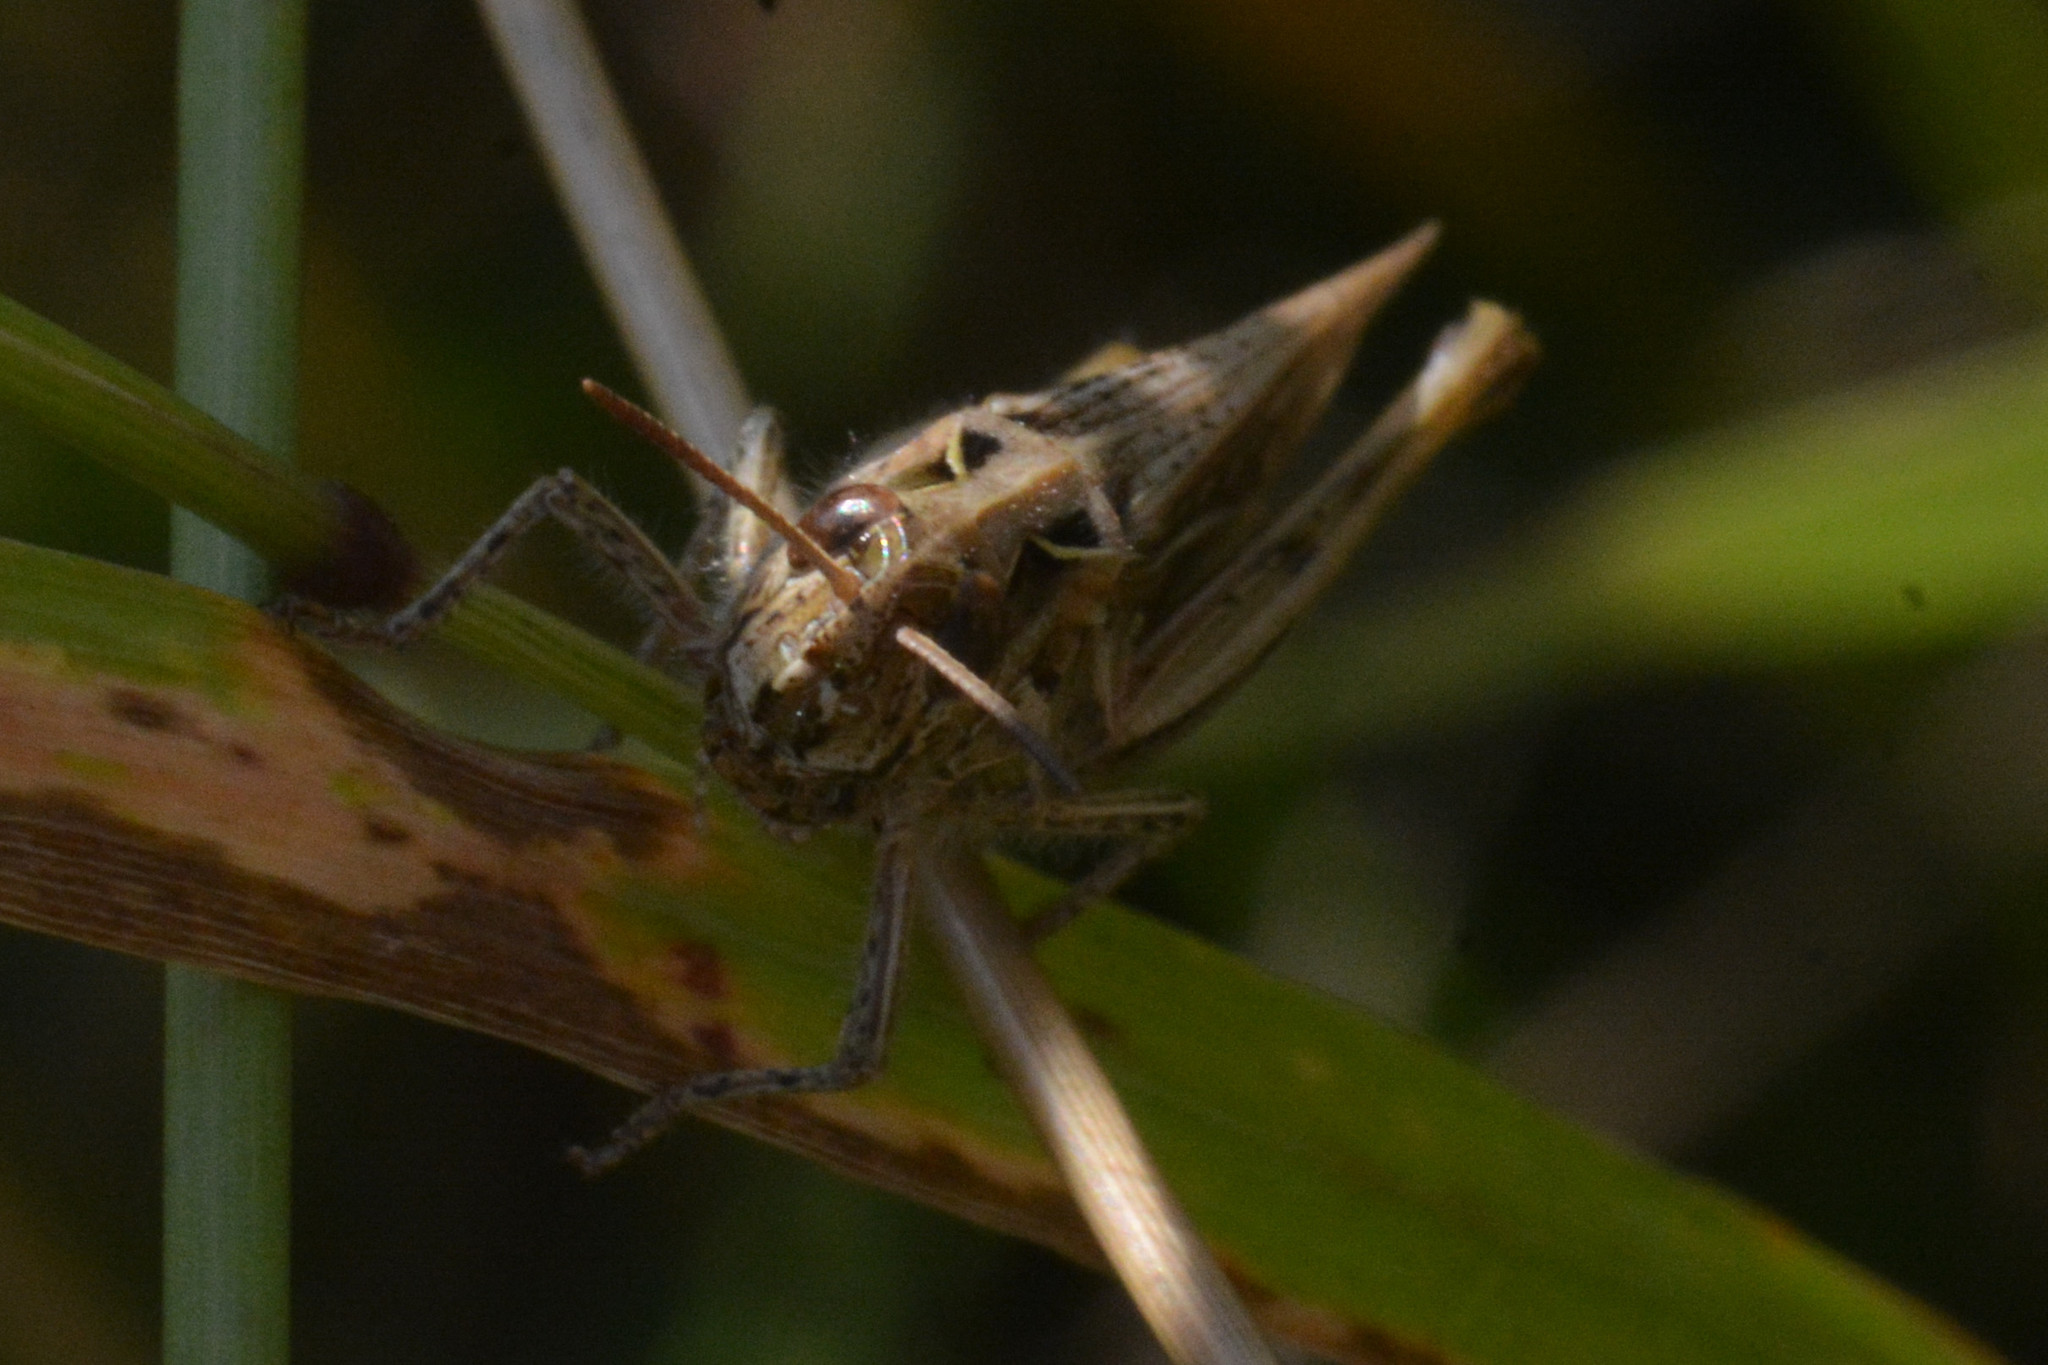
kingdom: Animalia
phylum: Arthropoda
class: Insecta
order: Orthoptera
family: Acrididae
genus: Chorthippus
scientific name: Chorthippus brunneus
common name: Field grasshopper
